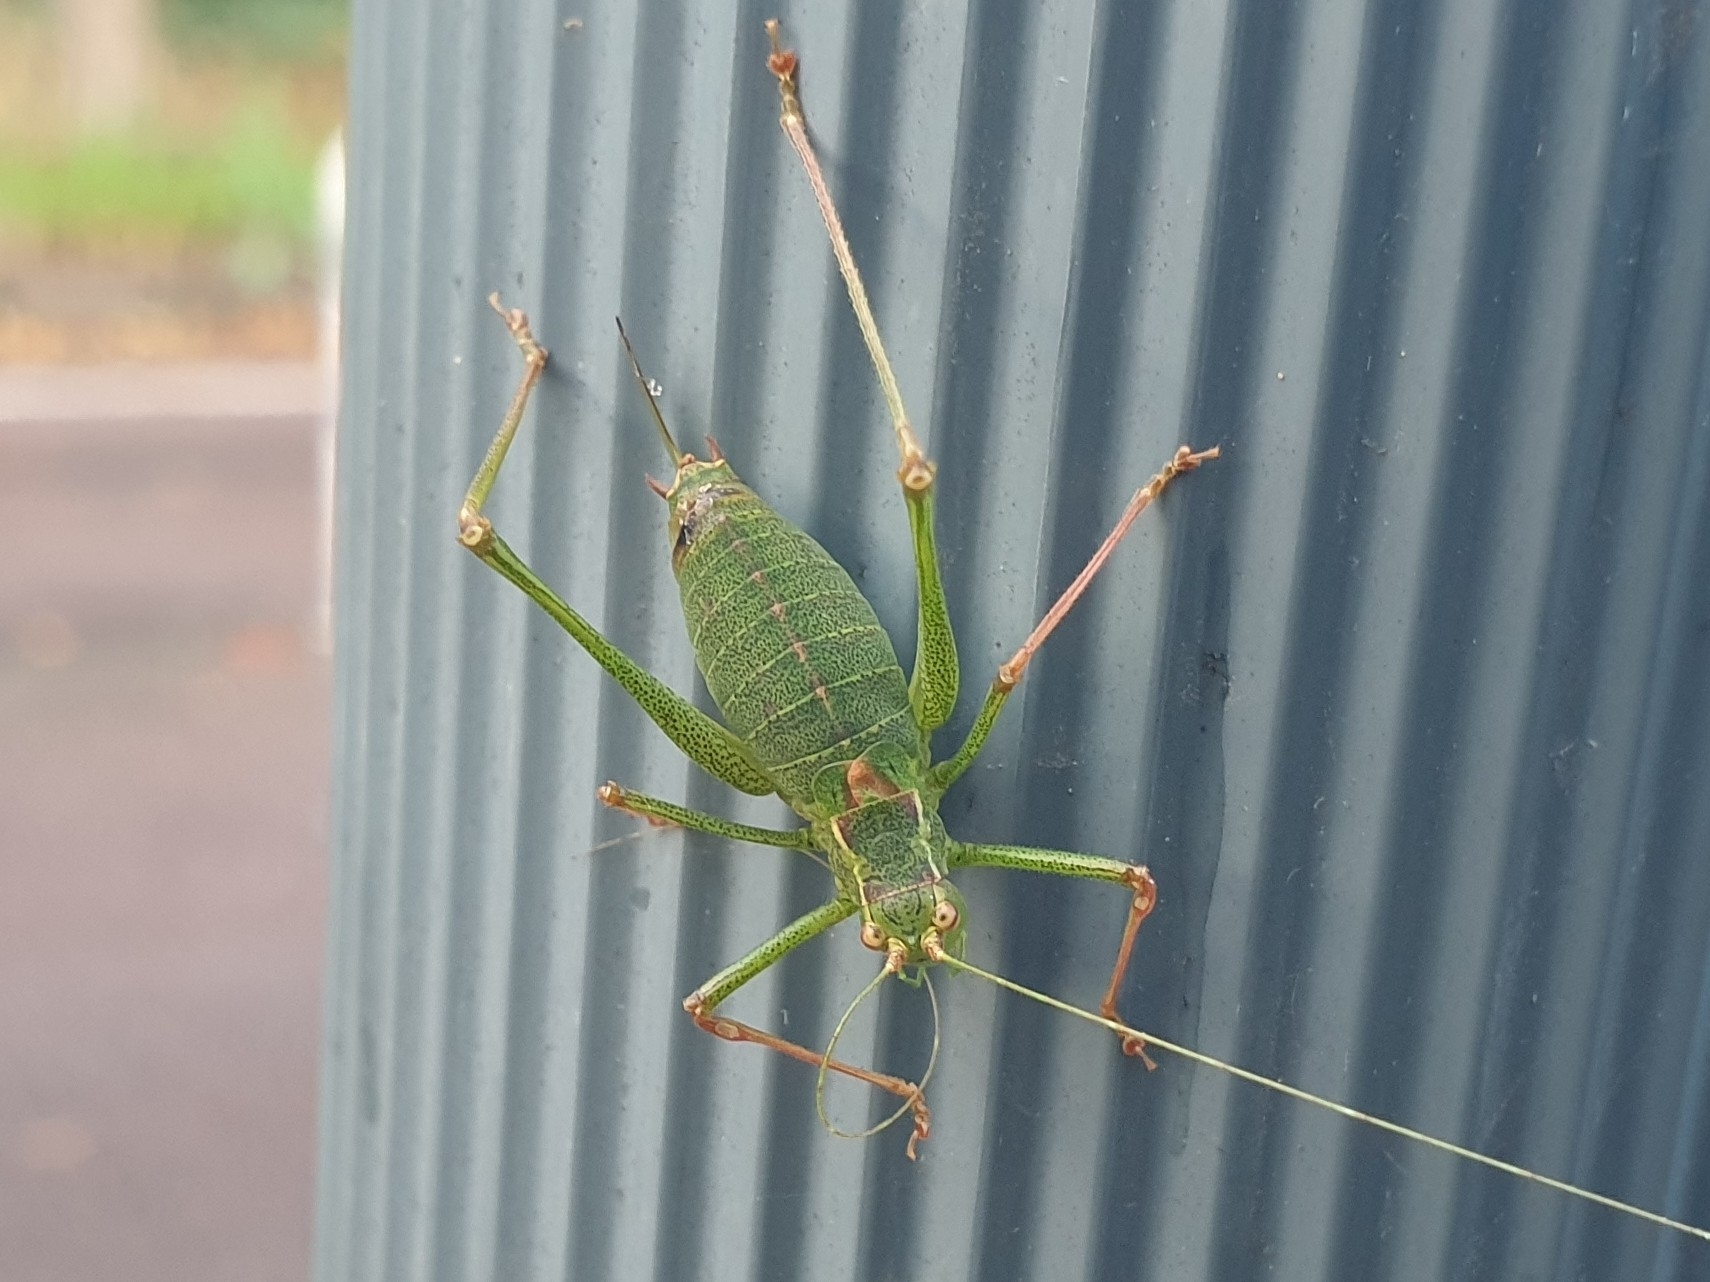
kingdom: Animalia
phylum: Arthropoda
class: Insecta
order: Orthoptera
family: Tettigoniidae
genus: Leptophyes
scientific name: Leptophyes punctatissima
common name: Speckled bush-cricket
